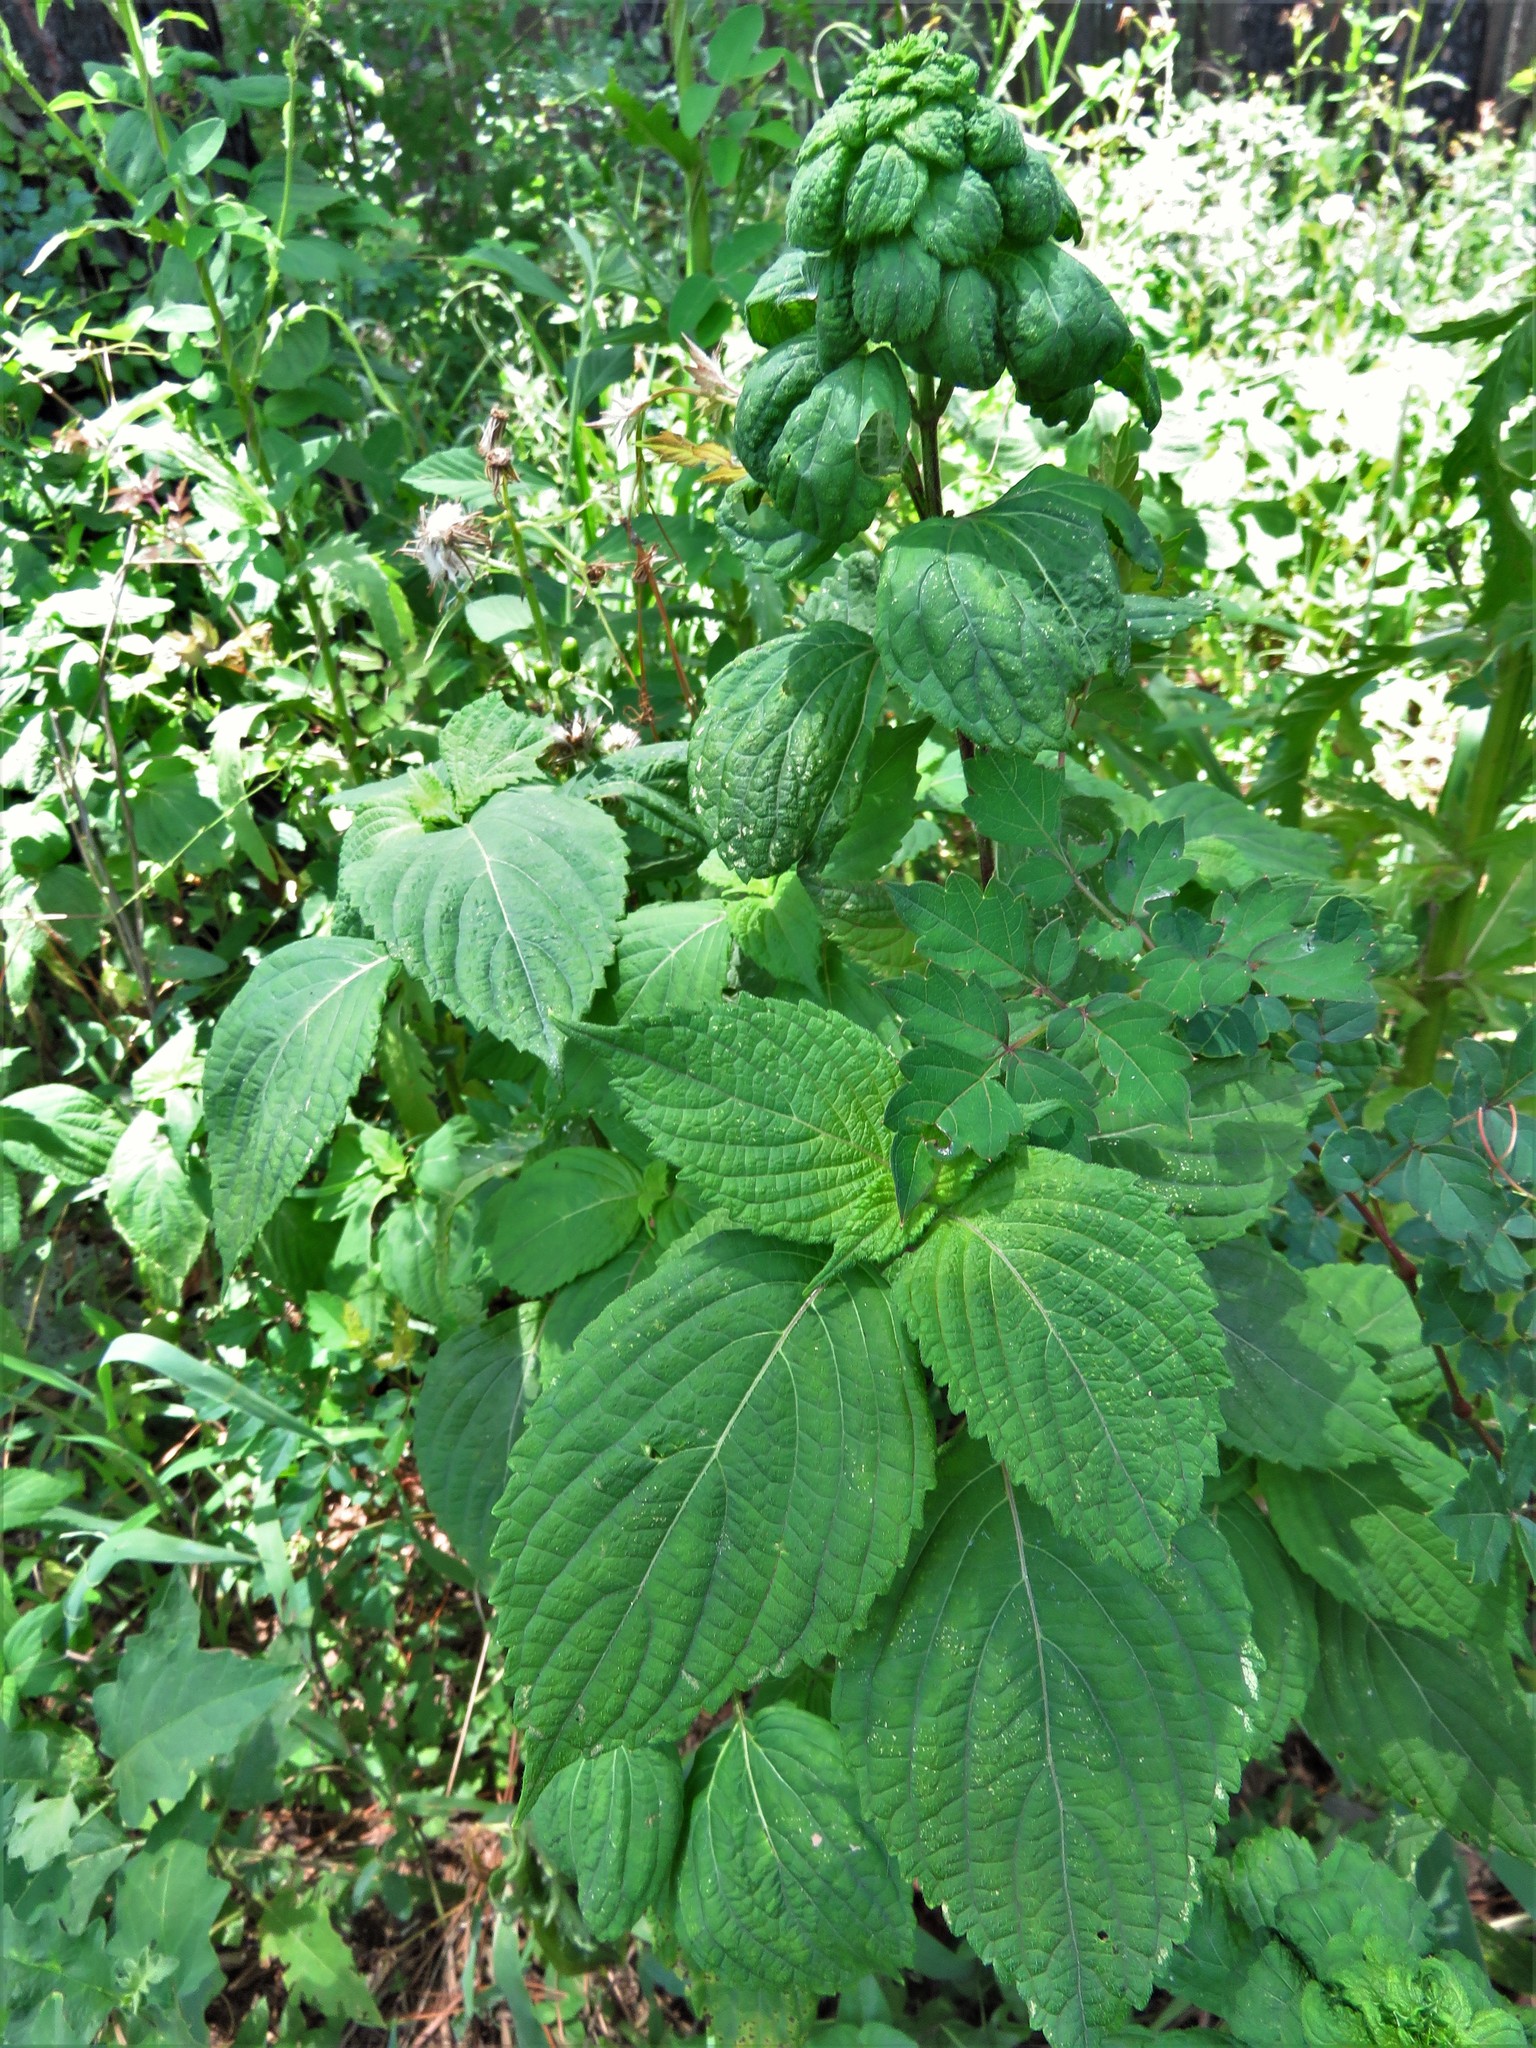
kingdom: Plantae
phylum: Tracheophyta
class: Magnoliopsida
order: Lamiales
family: Lamiaceae
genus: Perilla
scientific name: Perilla frutescens
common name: Perilla
